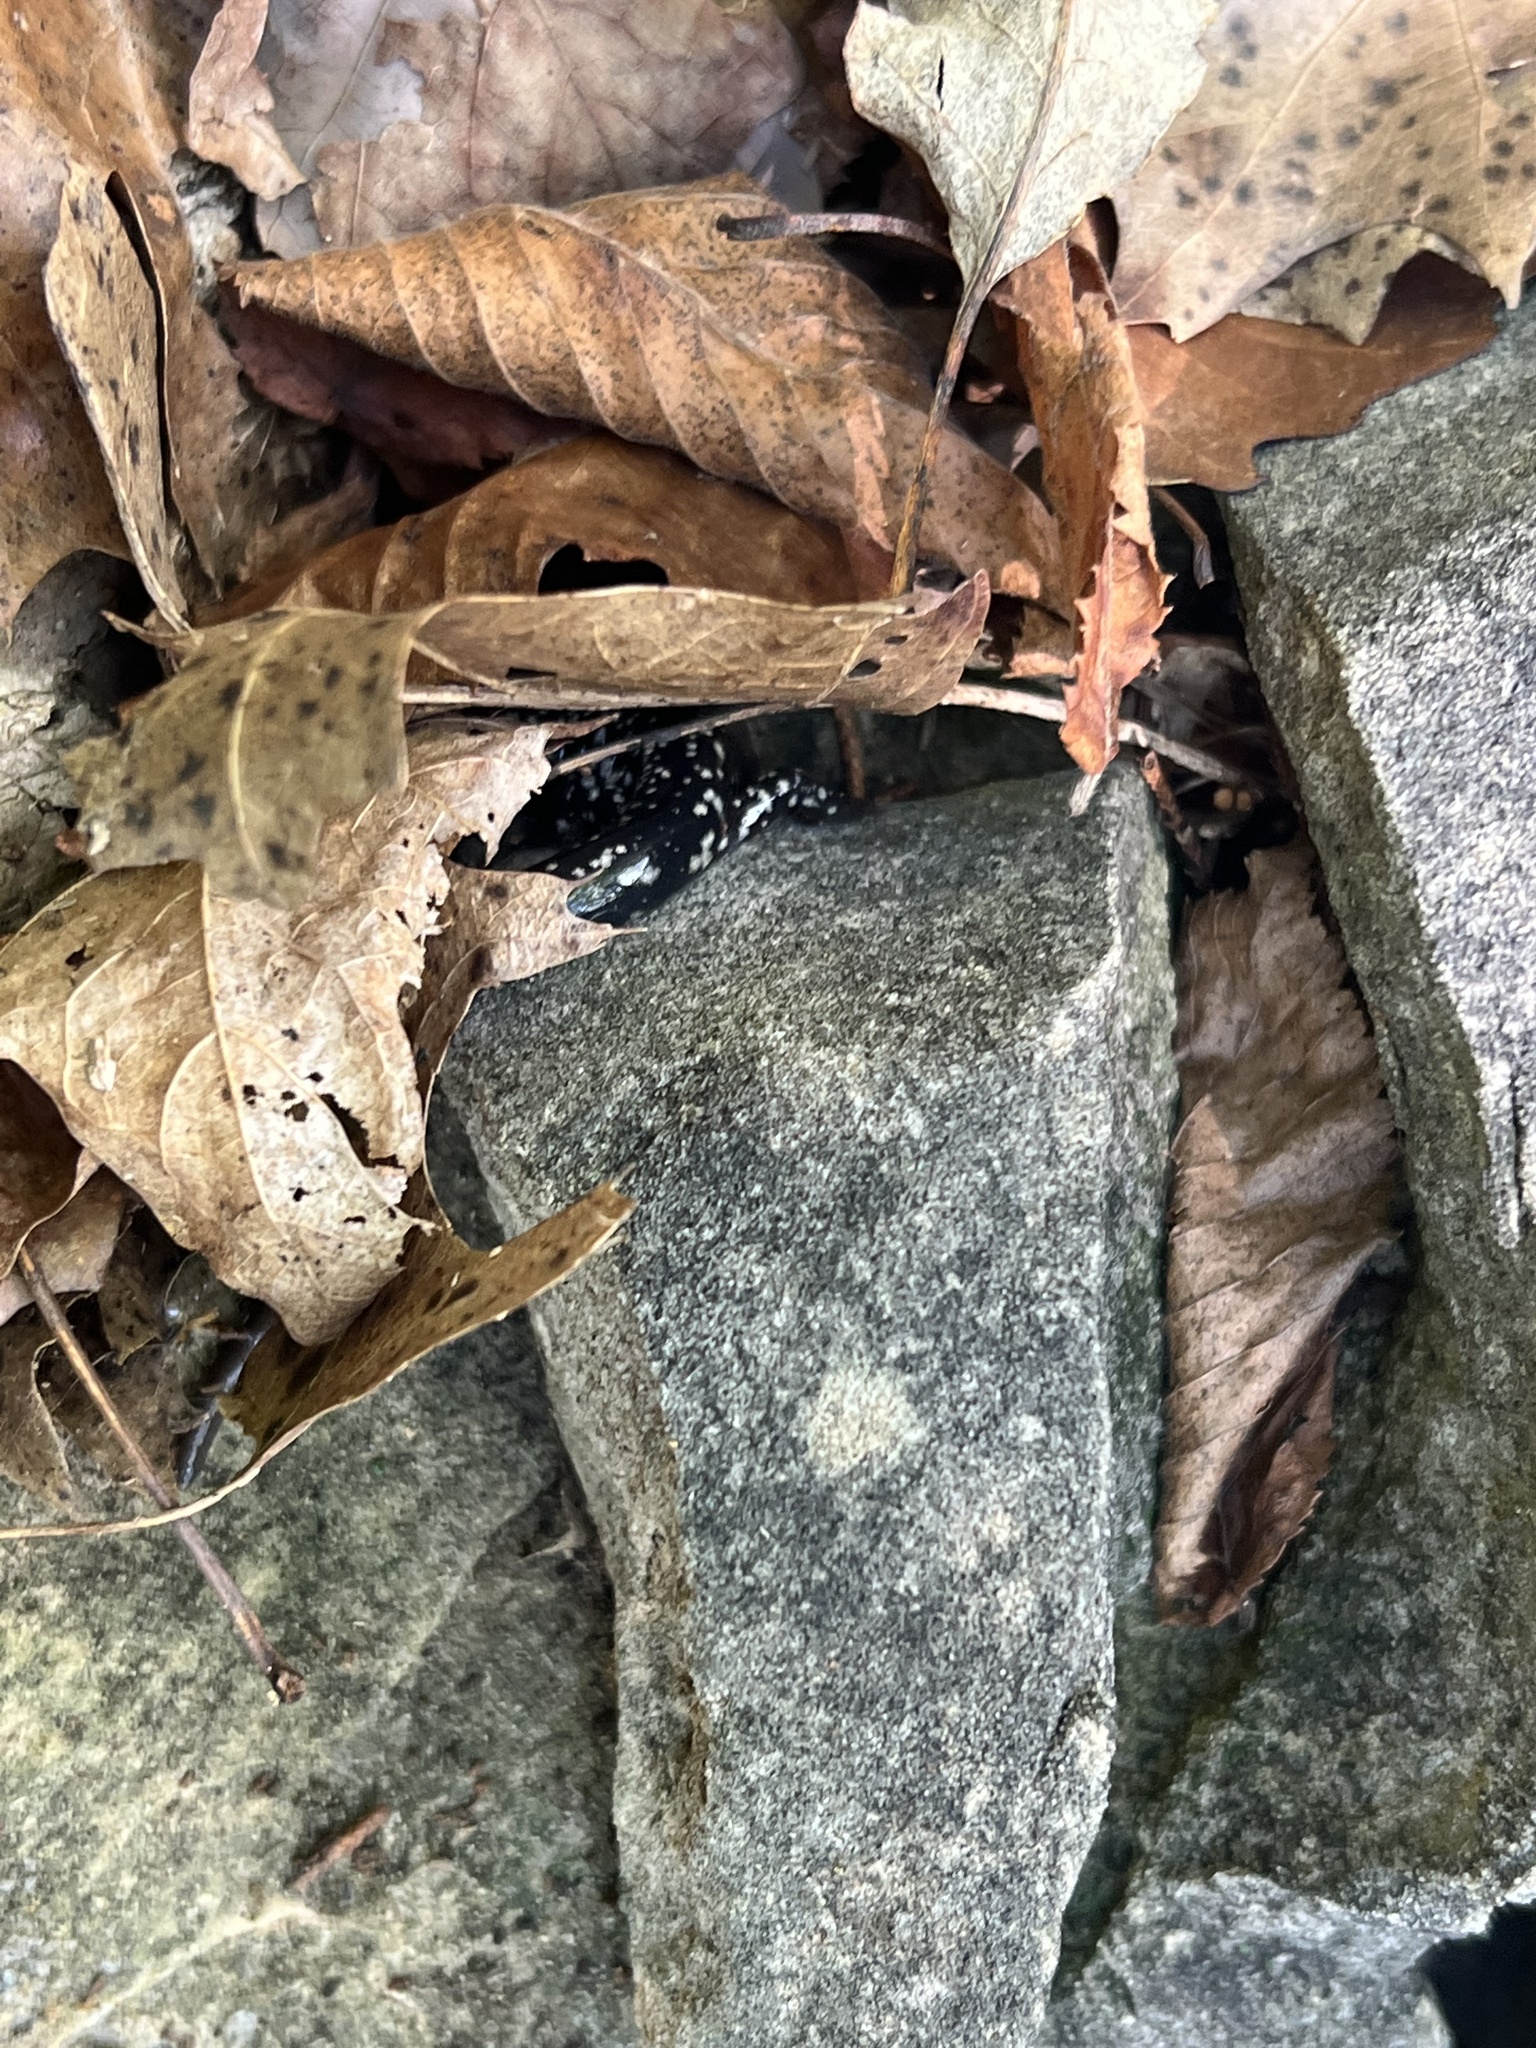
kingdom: Animalia
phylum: Chordata
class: Amphibia
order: Caudata
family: Plethodontidae
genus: Plethodon
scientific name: Plethodon albagula
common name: Western slimy salamander
